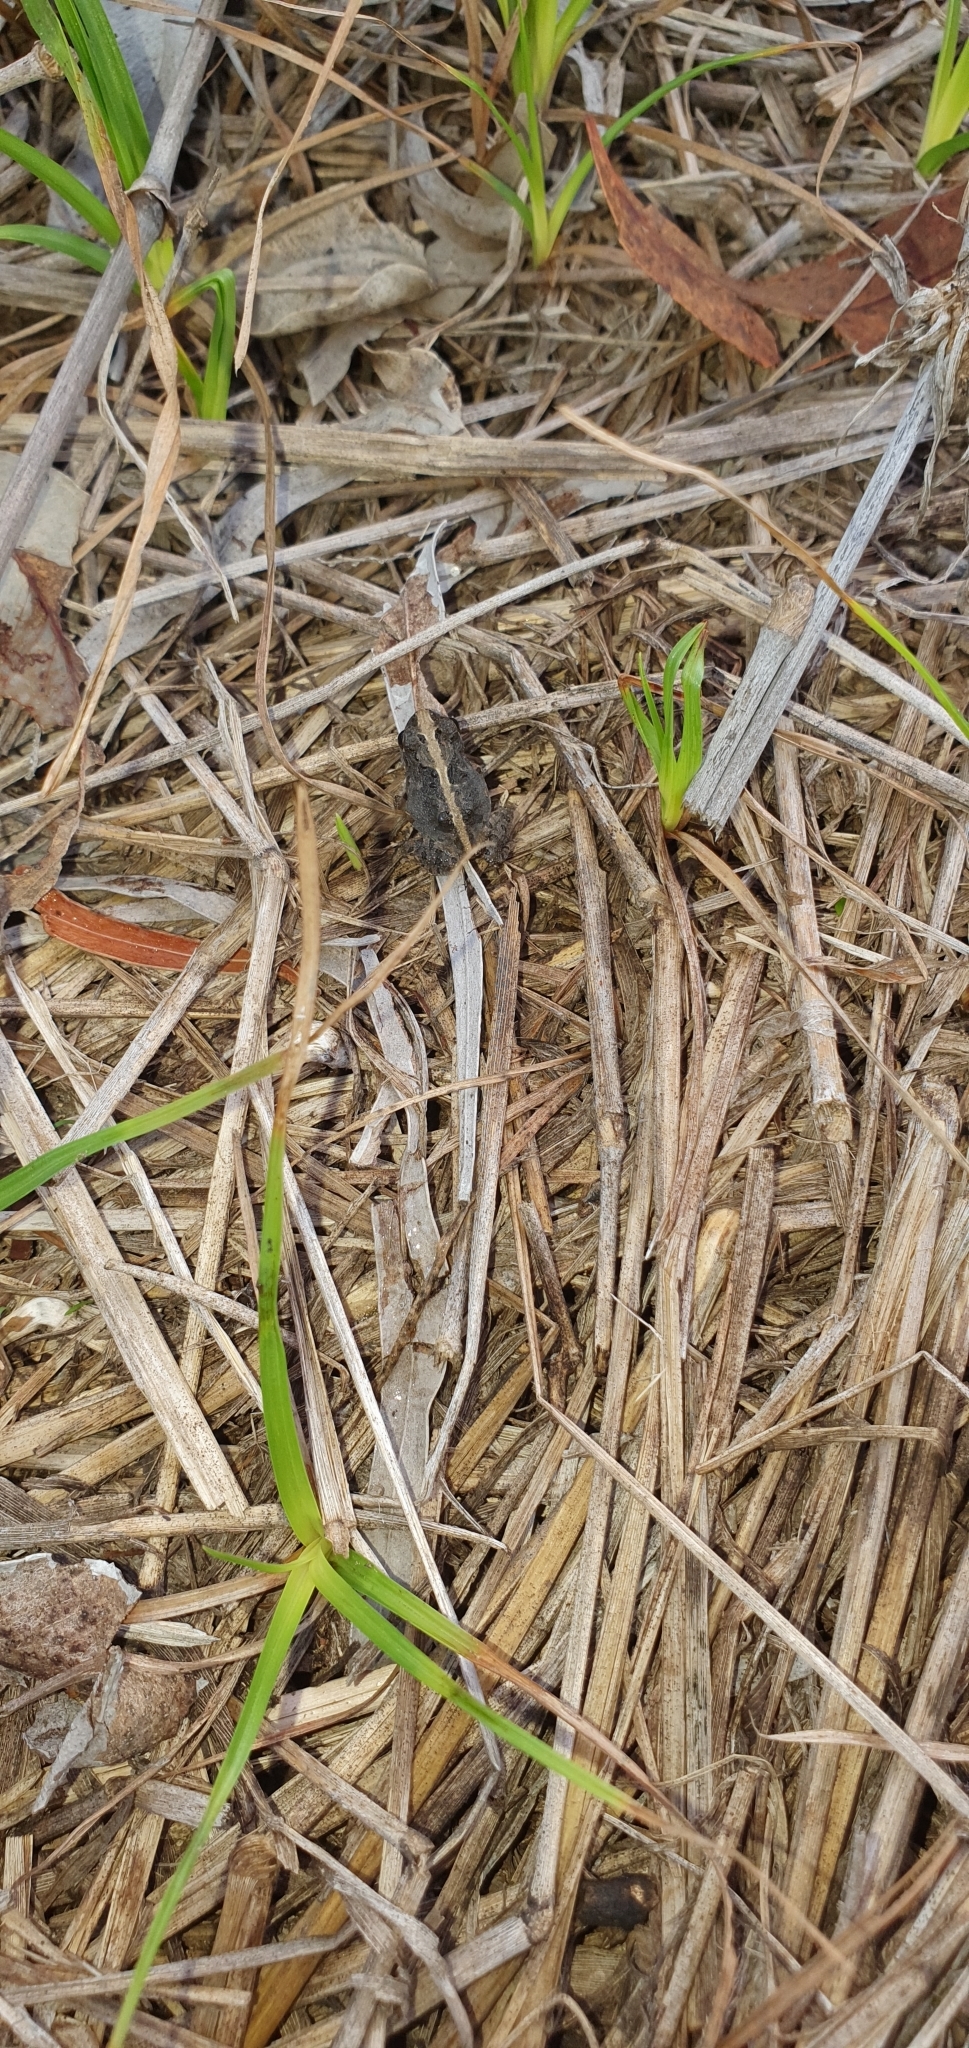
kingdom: Animalia
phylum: Chordata
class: Amphibia
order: Anura
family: Limnodynastidae
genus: Platyplectrum
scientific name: Platyplectrum ornatum
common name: Ornate burrowing frog
